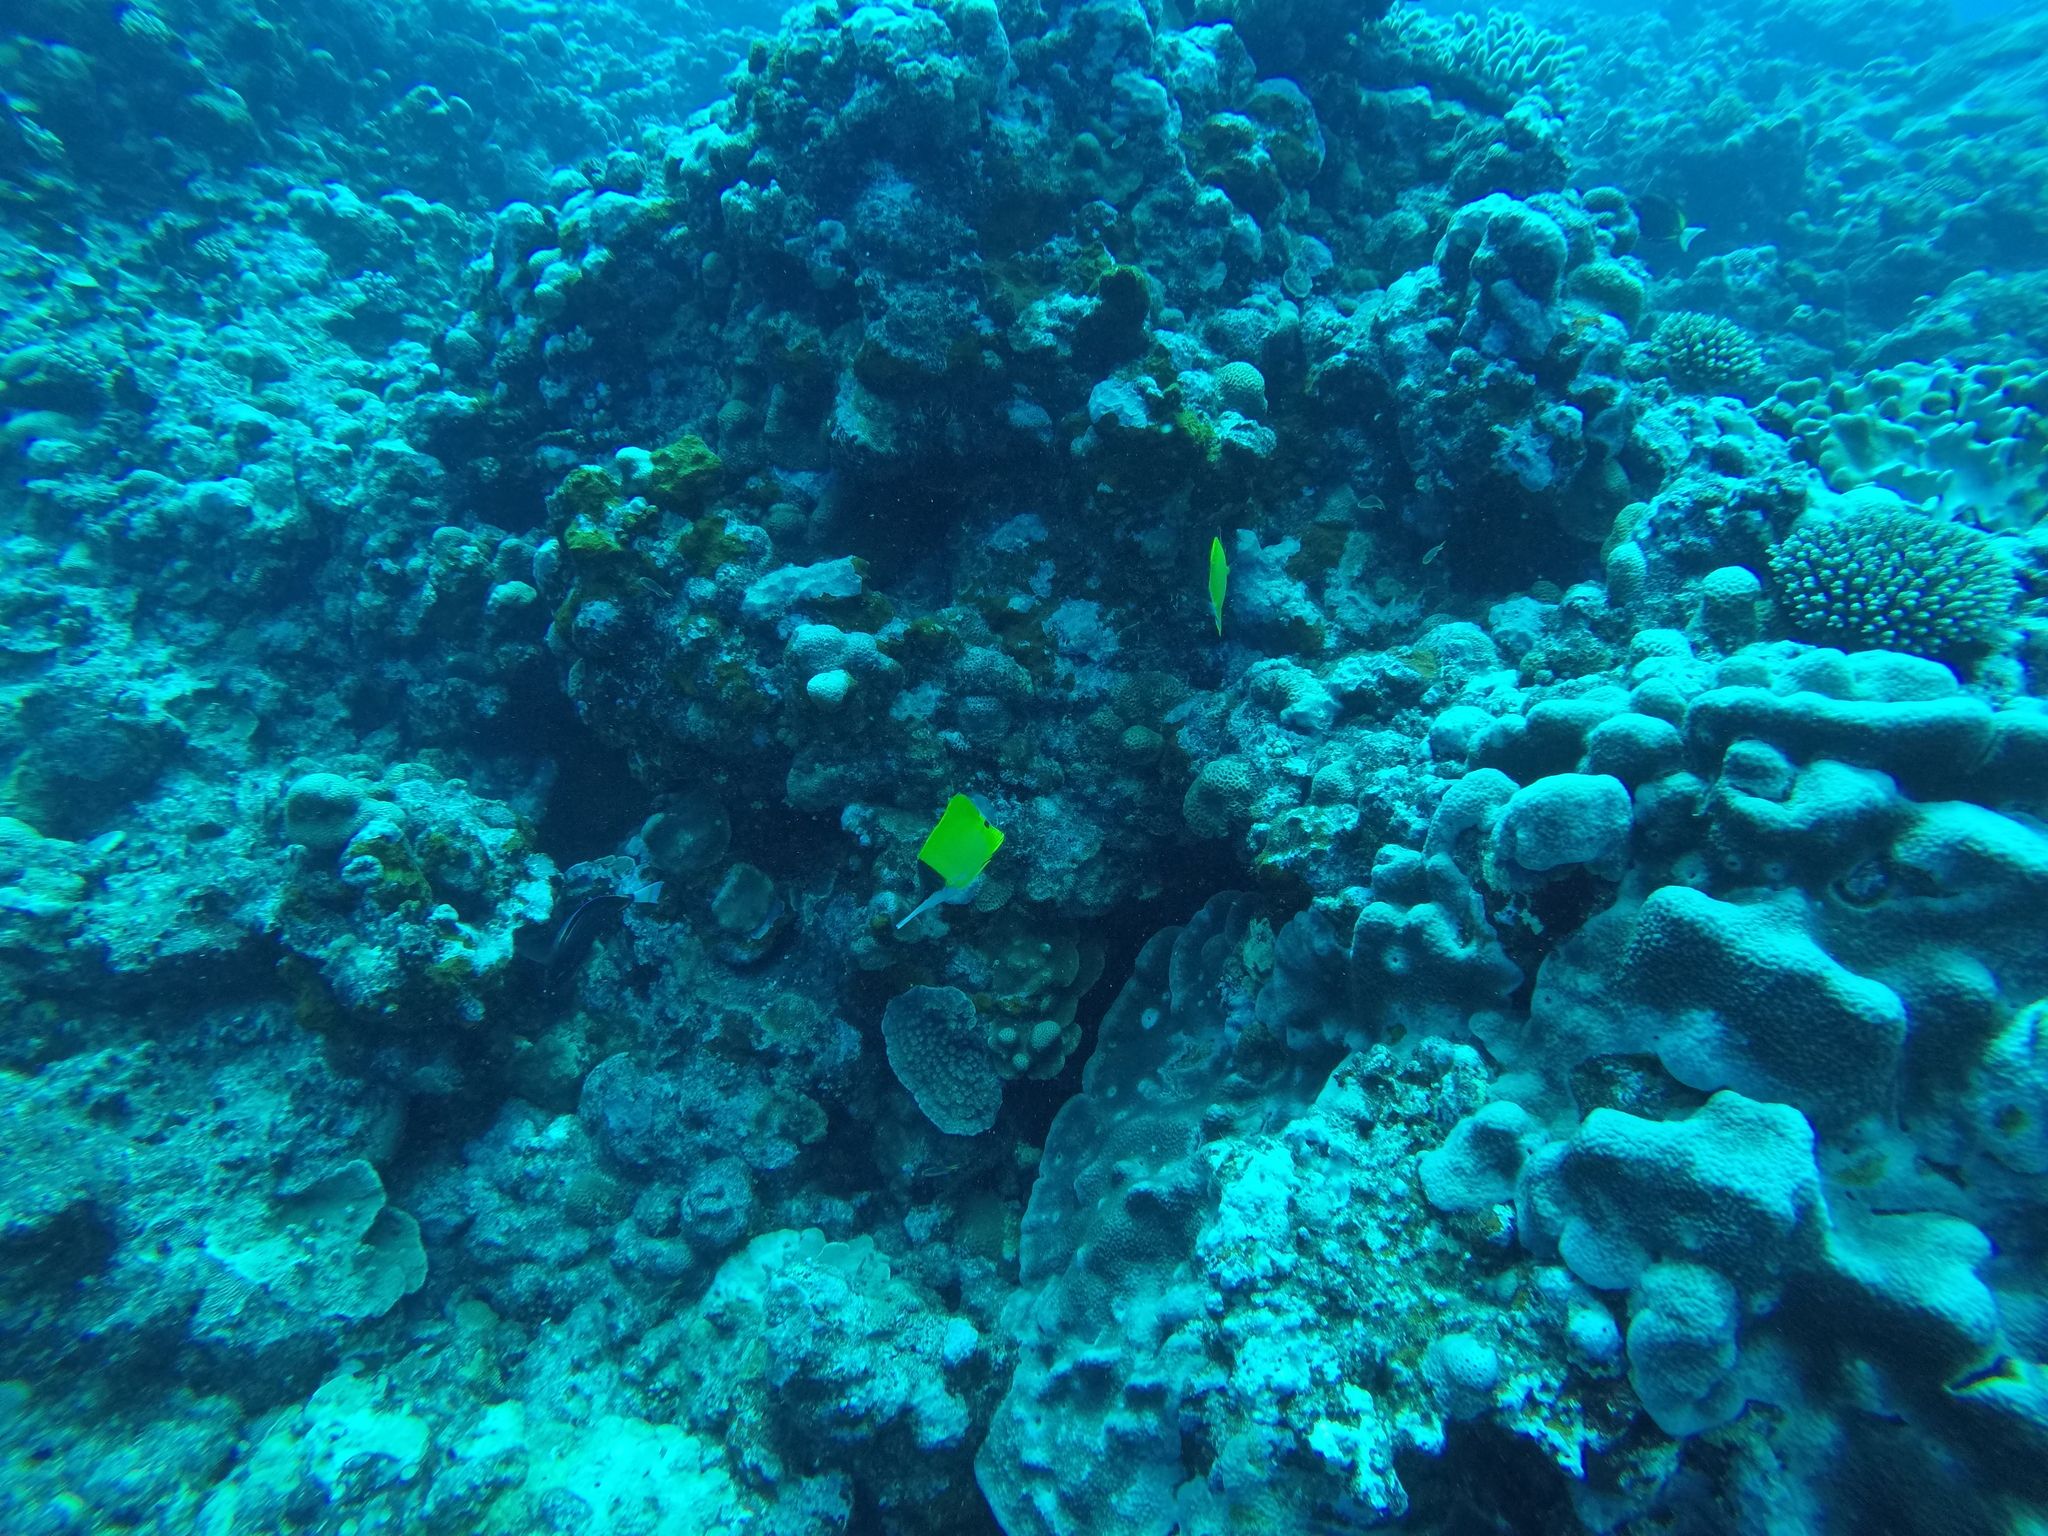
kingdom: Animalia
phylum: Chordata
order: Perciformes
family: Chaetodontidae
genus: Forcipiger
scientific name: Forcipiger flavissimus
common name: Forcepsfish
